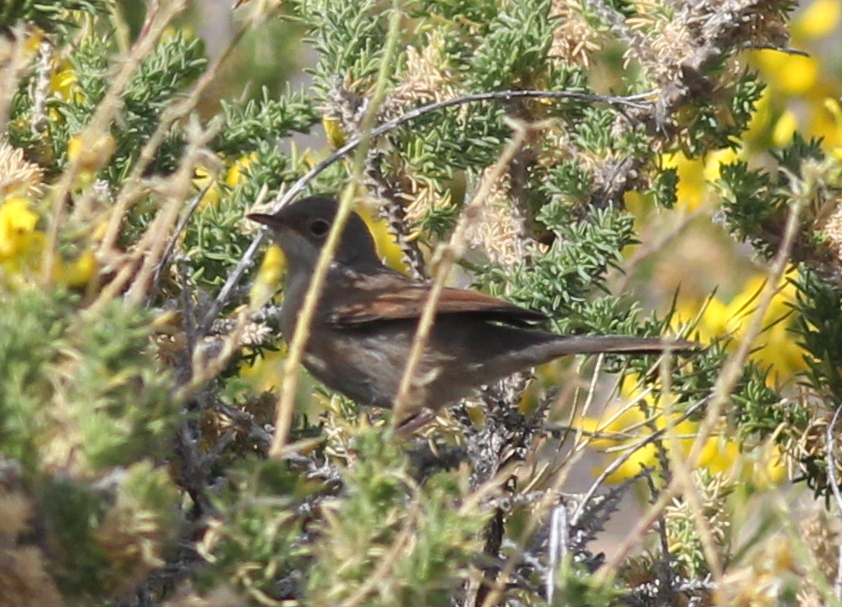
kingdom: Animalia
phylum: Chordata
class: Aves
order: Passeriformes
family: Sylviidae
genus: Sylvia
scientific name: Sylvia conspicillata
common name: Spectacled warbler
